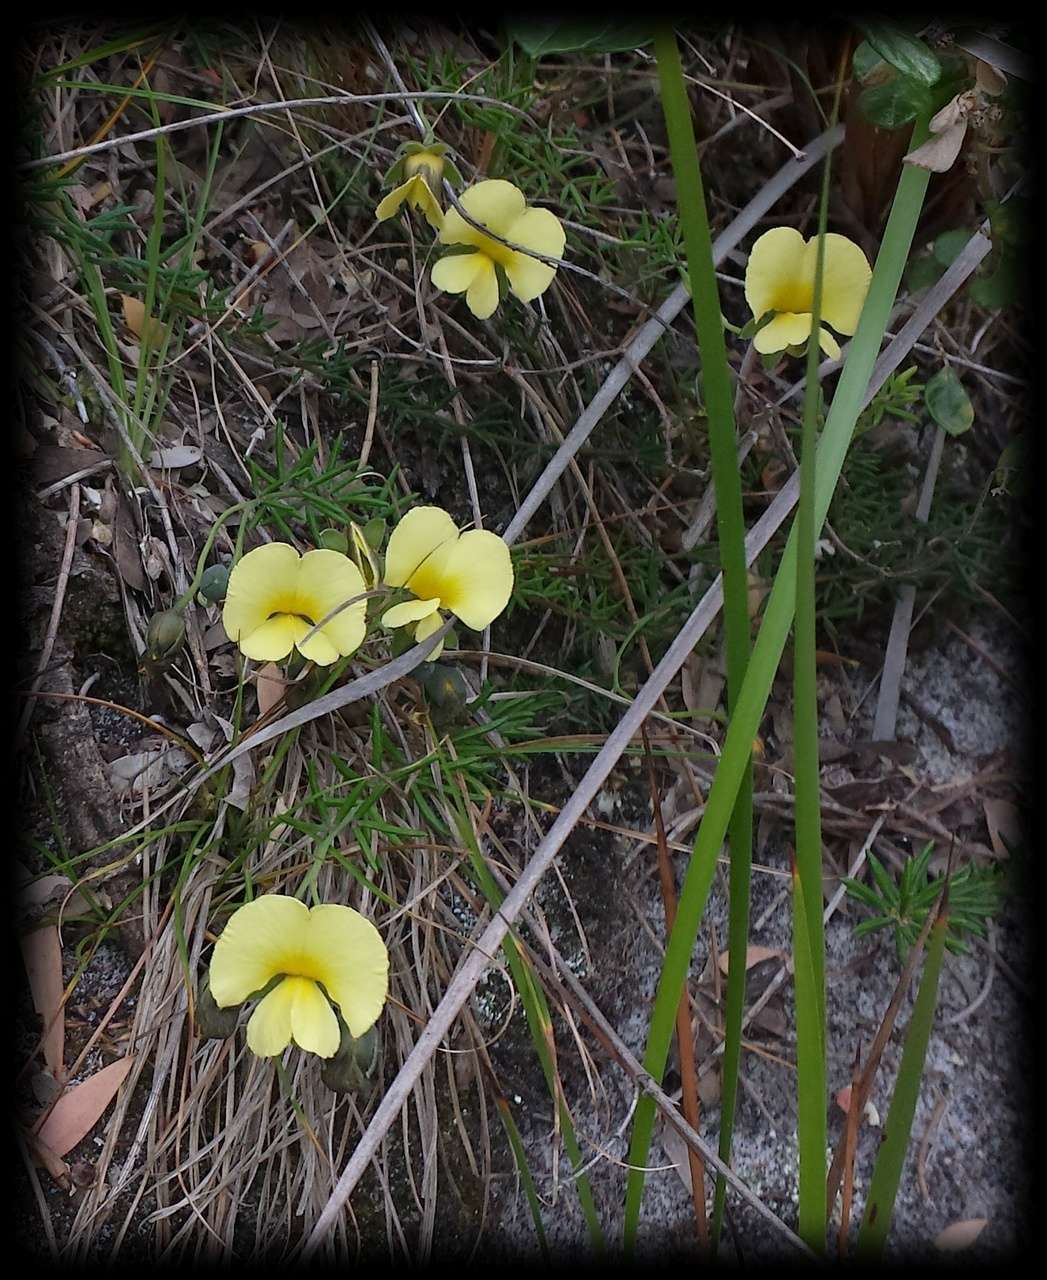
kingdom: Plantae
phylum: Tracheophyta
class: Magnoliopsida
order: Fabales
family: Fabaceae
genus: Gompholobium
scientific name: Gompholobium huegelii
